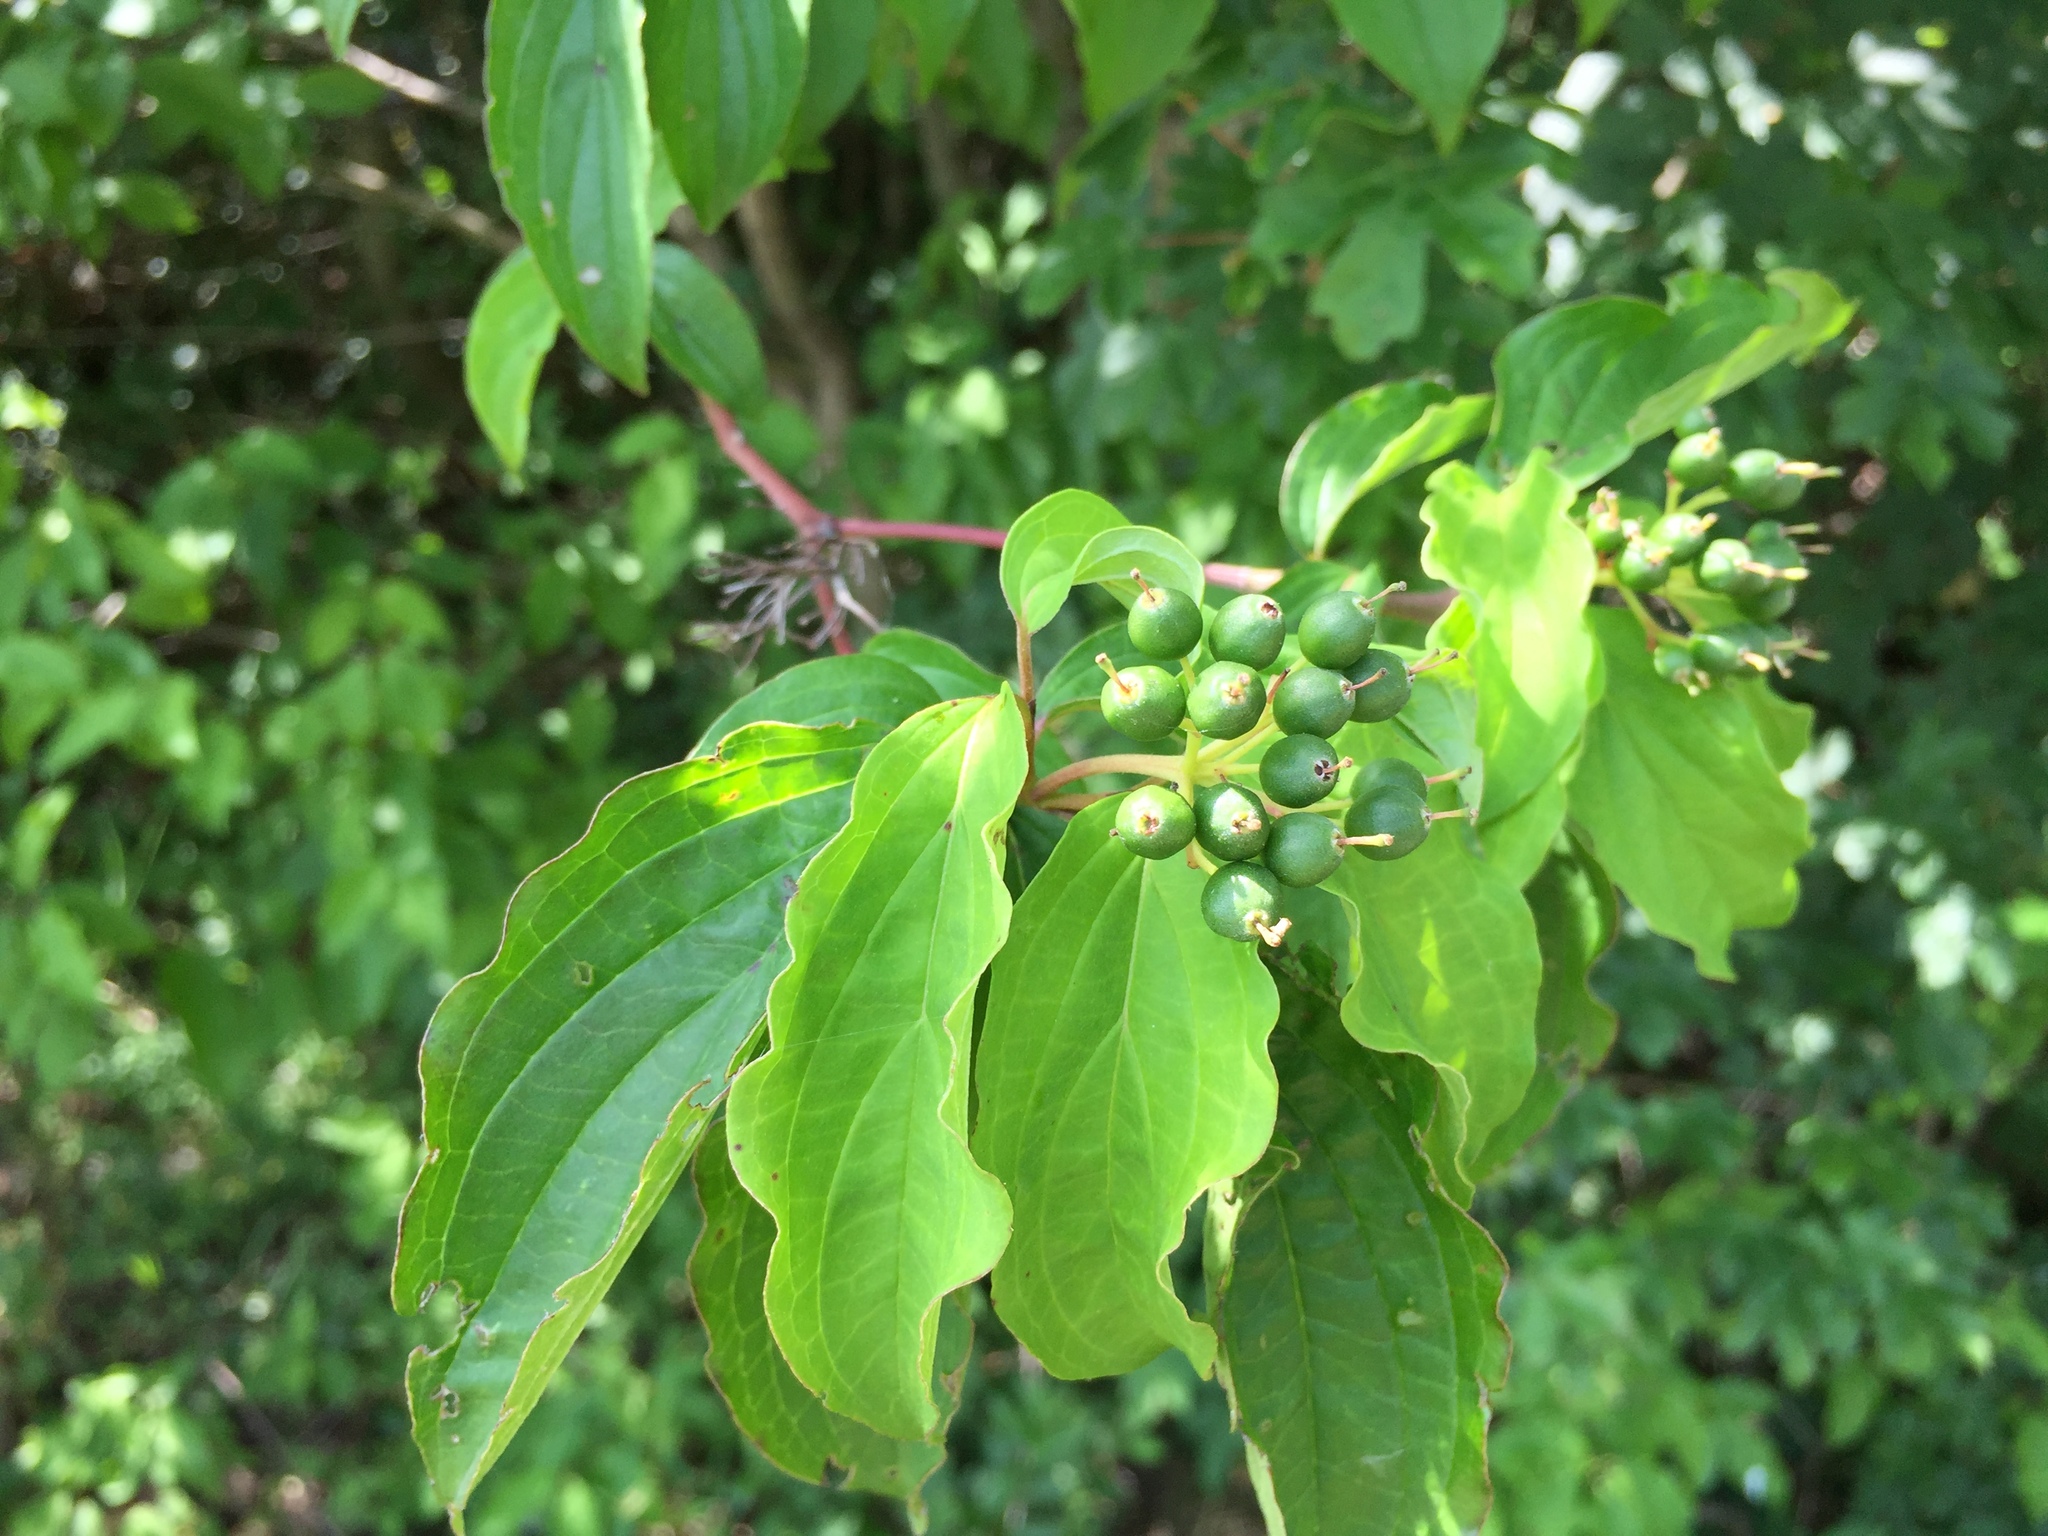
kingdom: Plantae
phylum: Tracheophyta
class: Magnoliopsida
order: Cornales
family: Cornaceae
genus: Cornus
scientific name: Cornus sanguinea
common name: Dogwood
